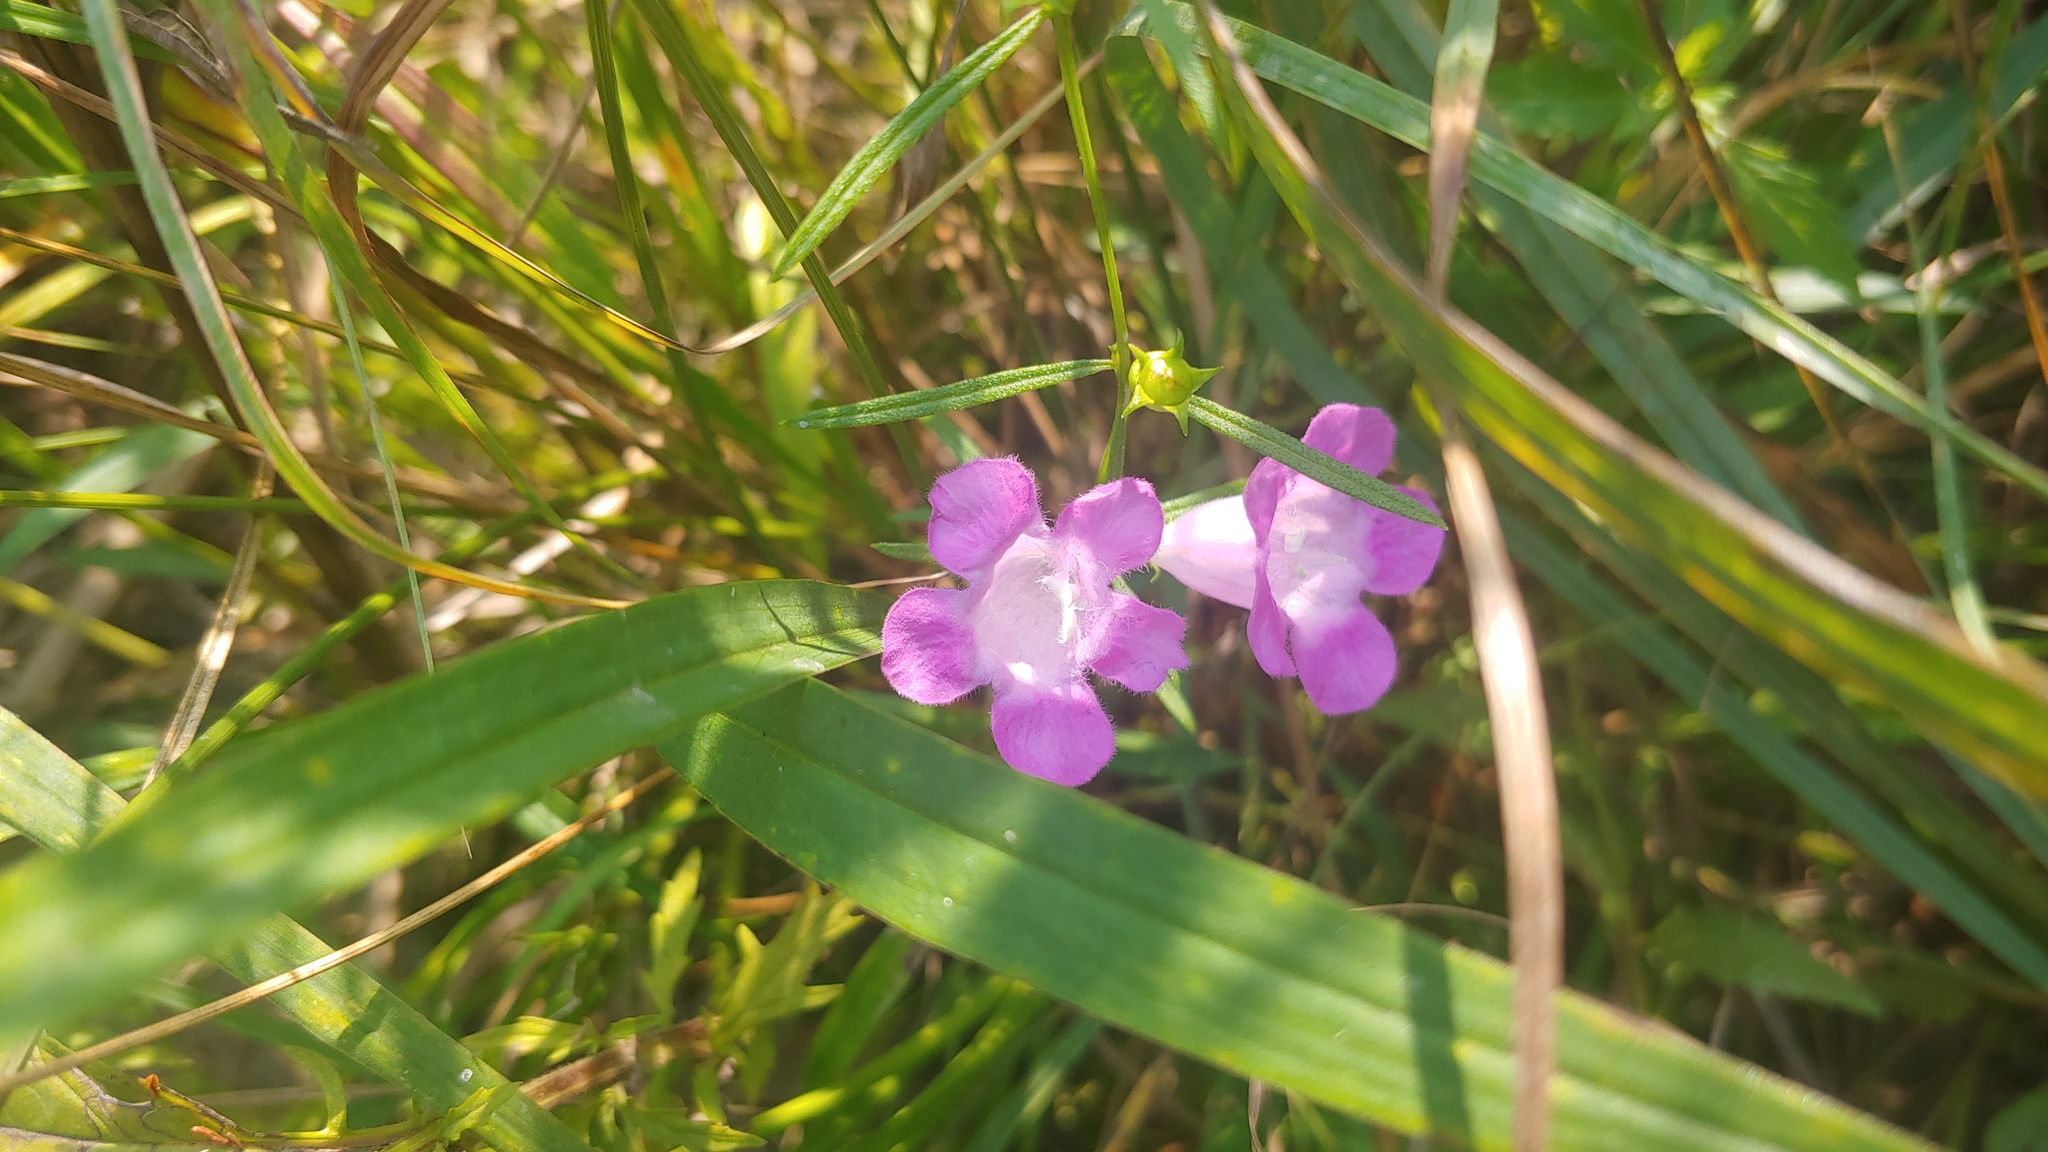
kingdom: Plantae
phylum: Tracheophyta
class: Magnoliopsida
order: Lamiales
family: Orobanchaceae
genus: Agalinis
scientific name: Agalinis purpurea
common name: Purple false foxglove
